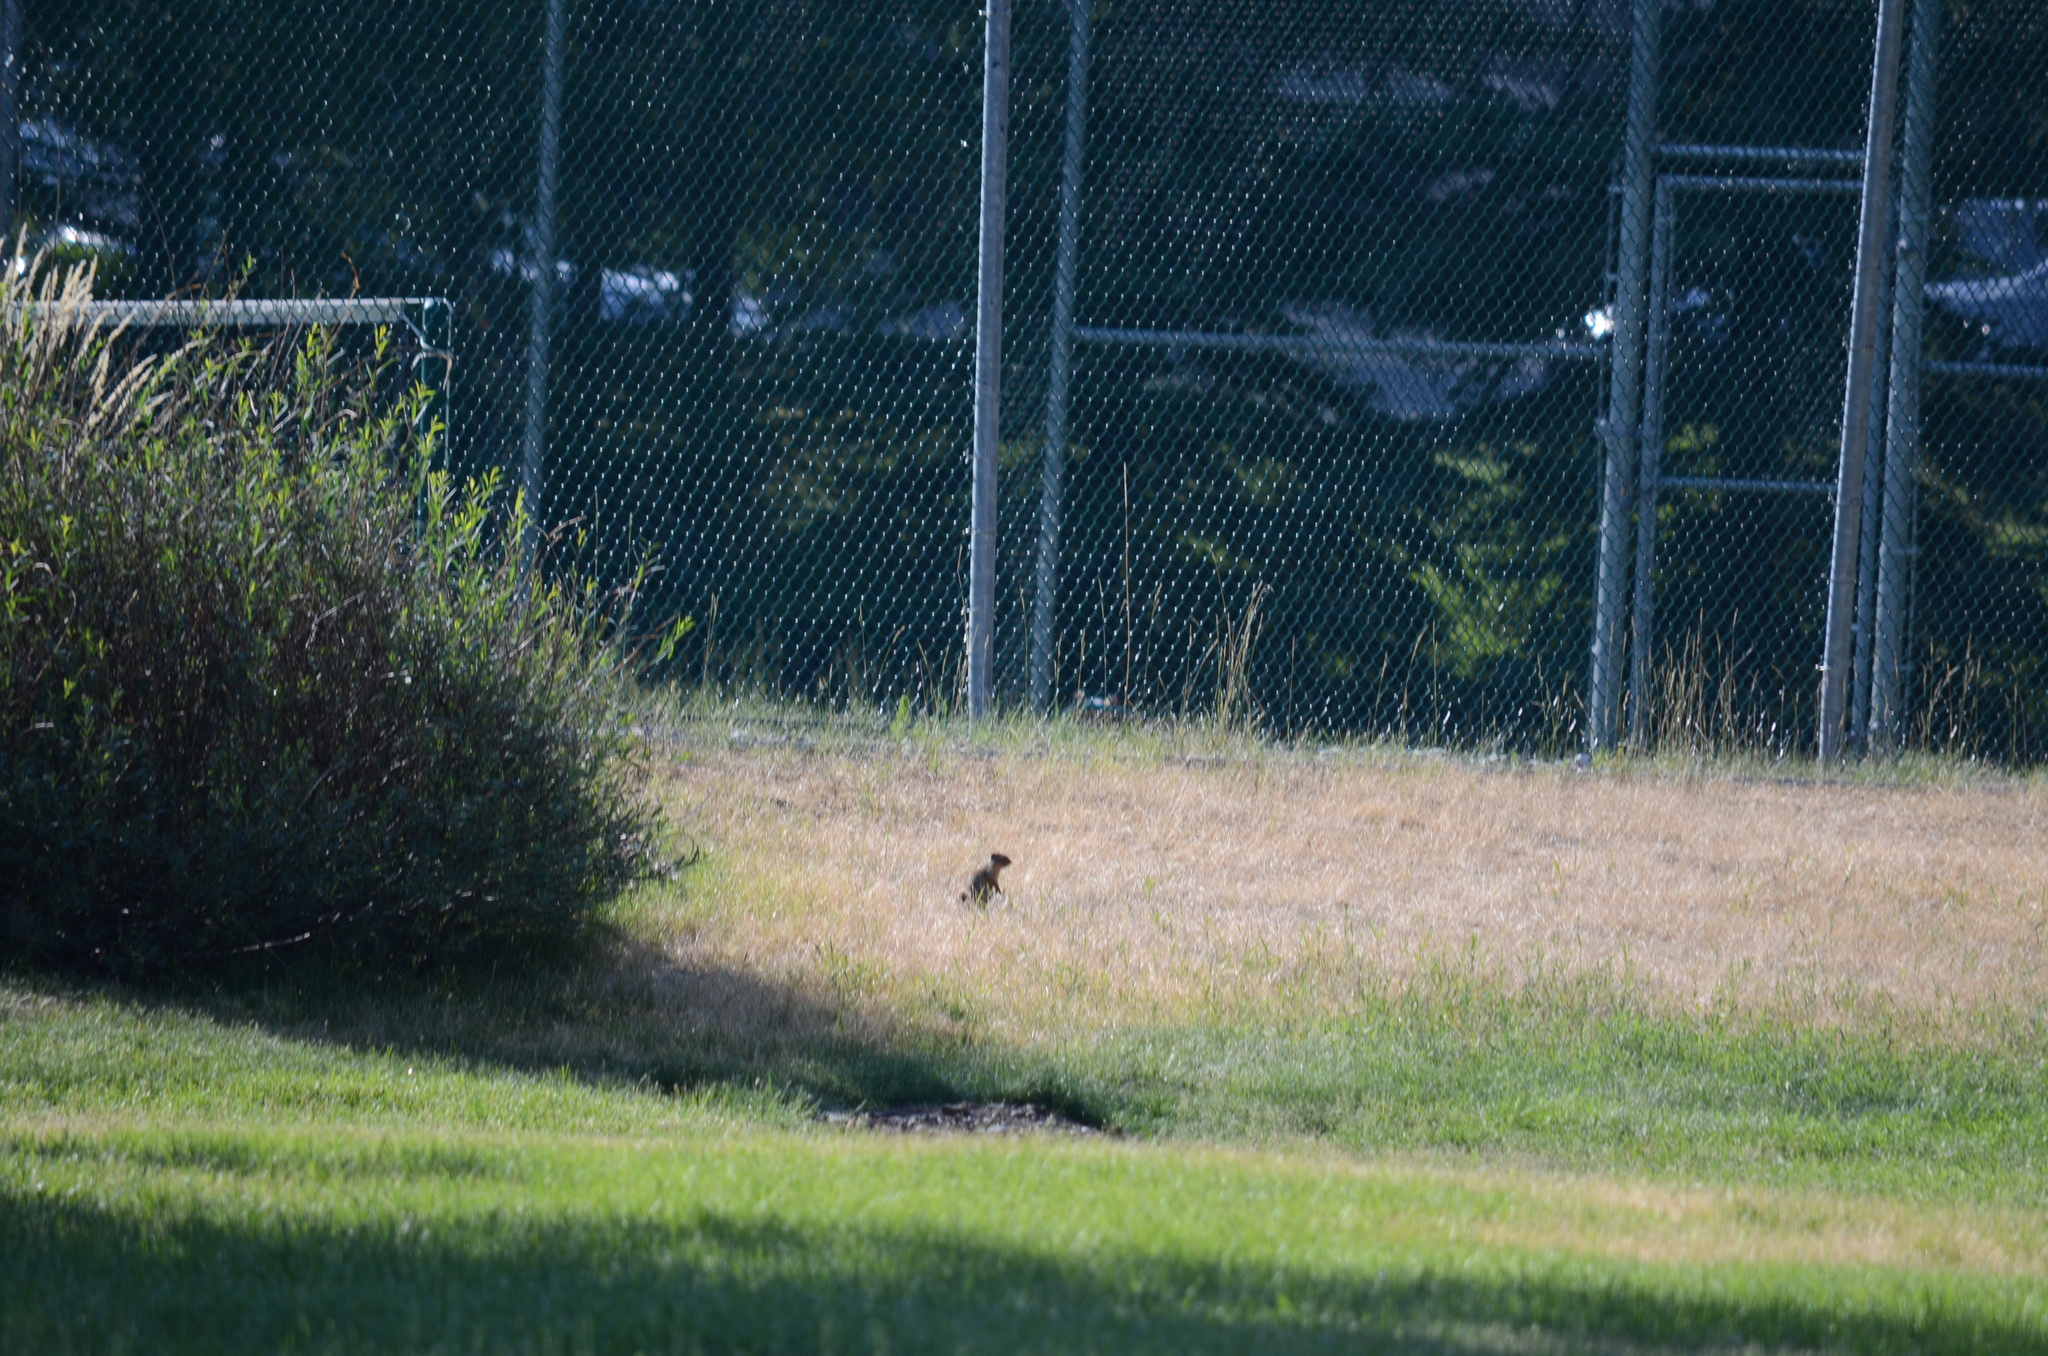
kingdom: Animalia
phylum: Chordata
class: Mammalia
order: Rodentia
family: Sciuridae
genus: Urocitellus
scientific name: Urocitellus columbianus
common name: Columbian ground squirrel
